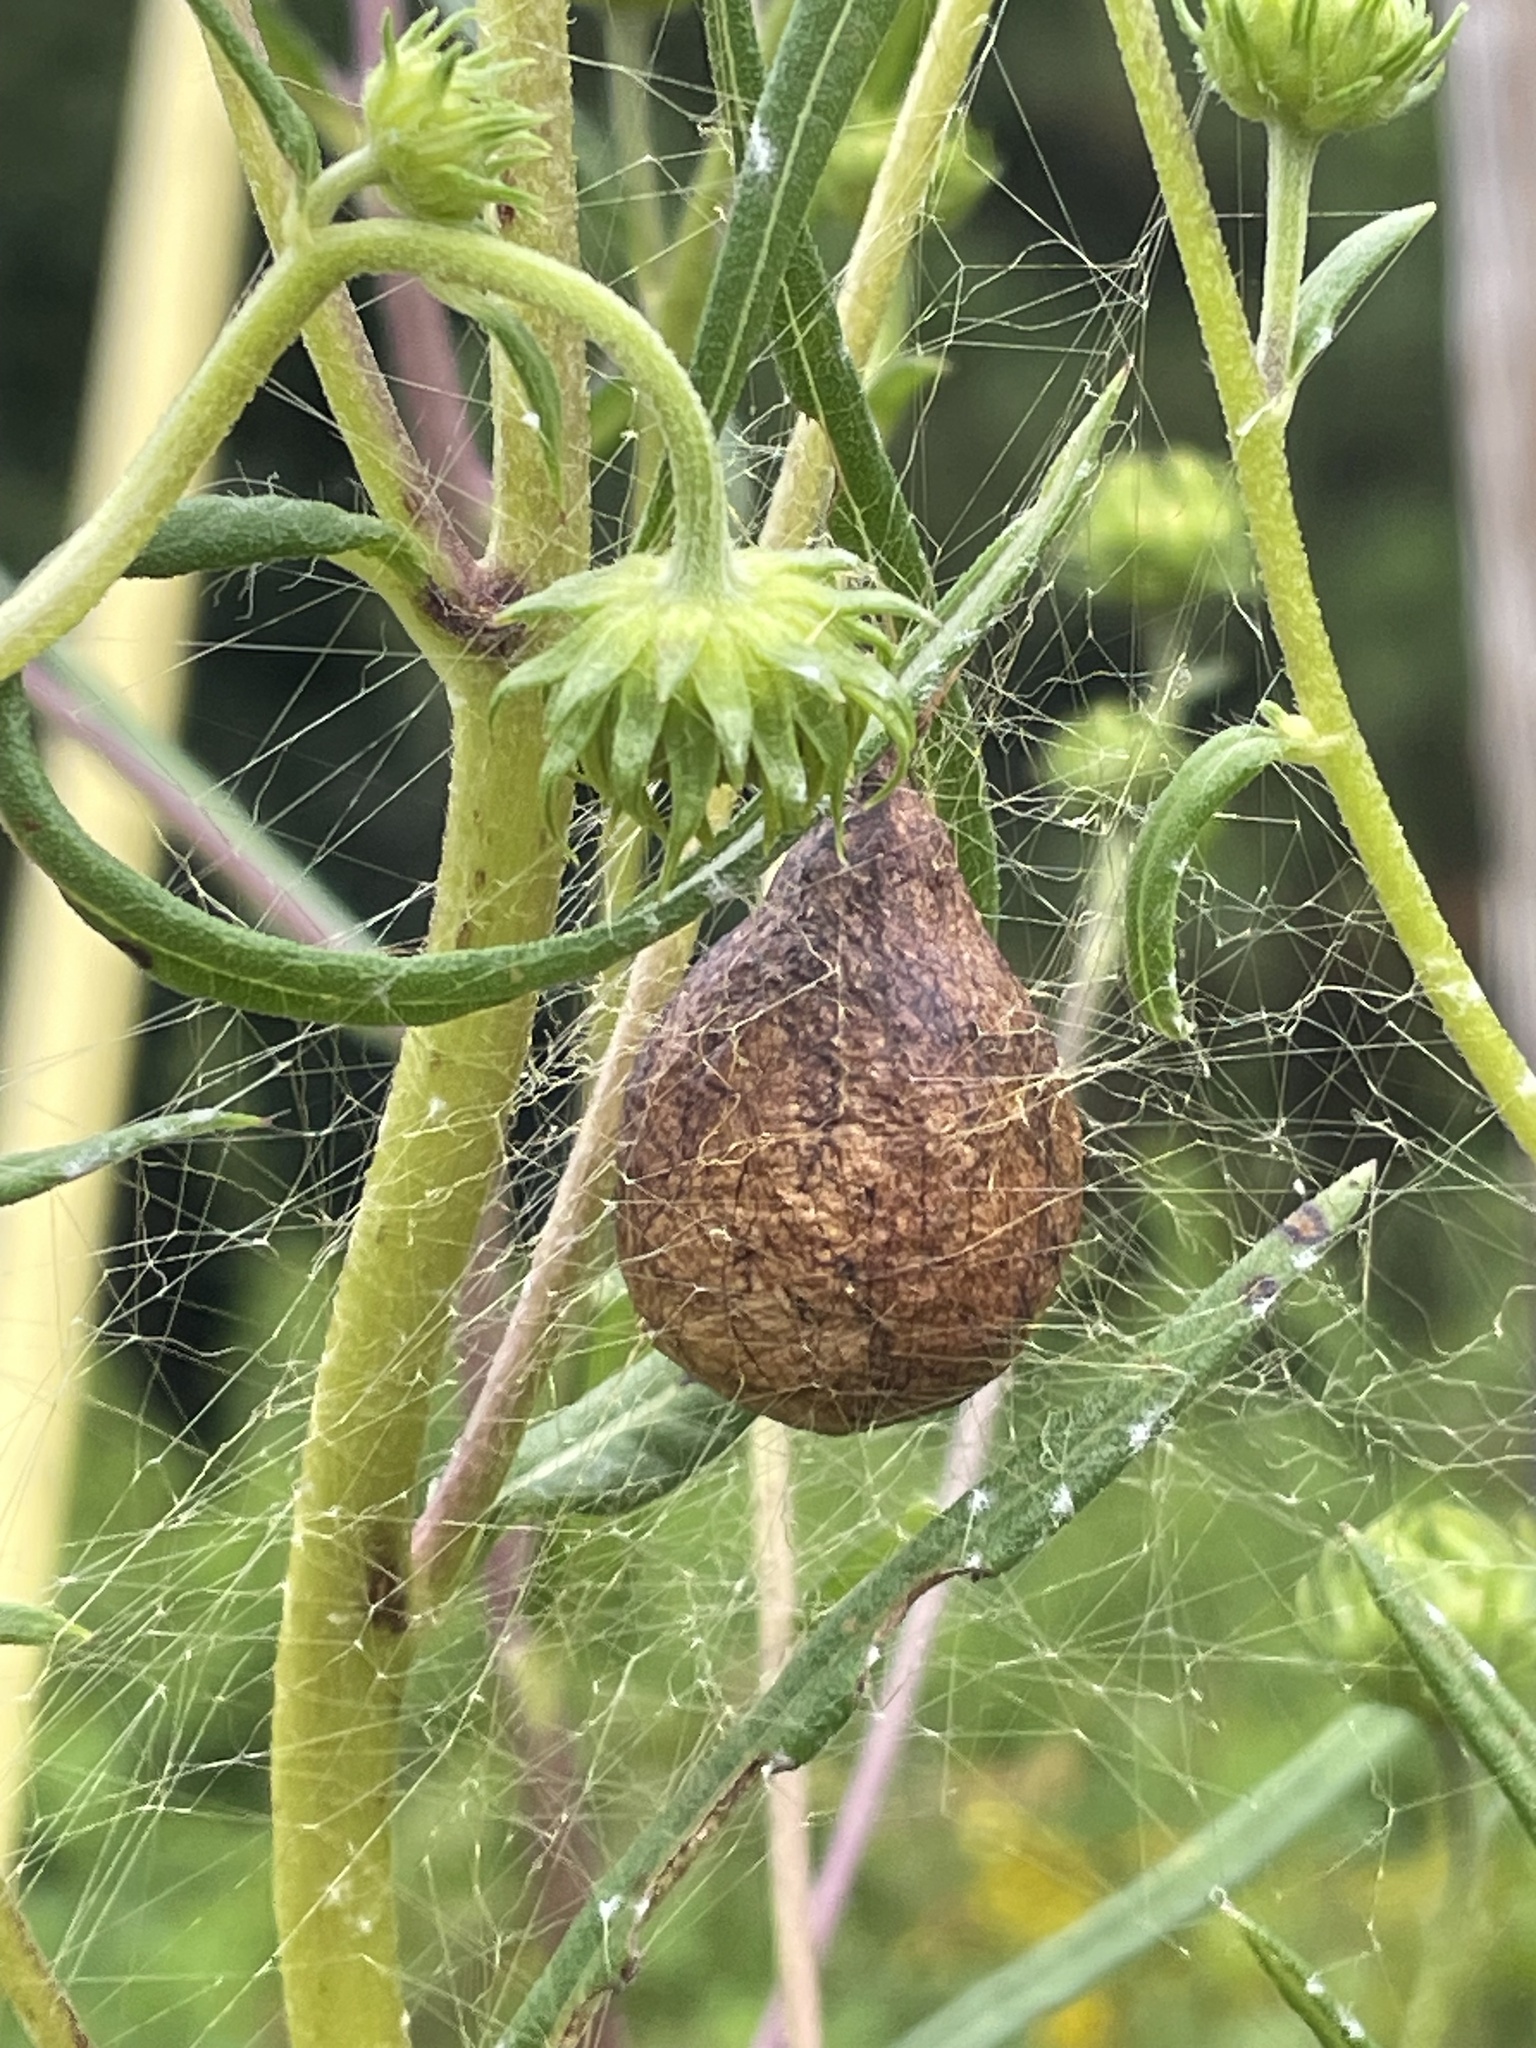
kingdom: Animalia
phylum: Arthropoda
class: Arachnida
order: Araneae
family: Araneidae
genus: Argiope
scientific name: Argiope aurantia
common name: Orb weavers
